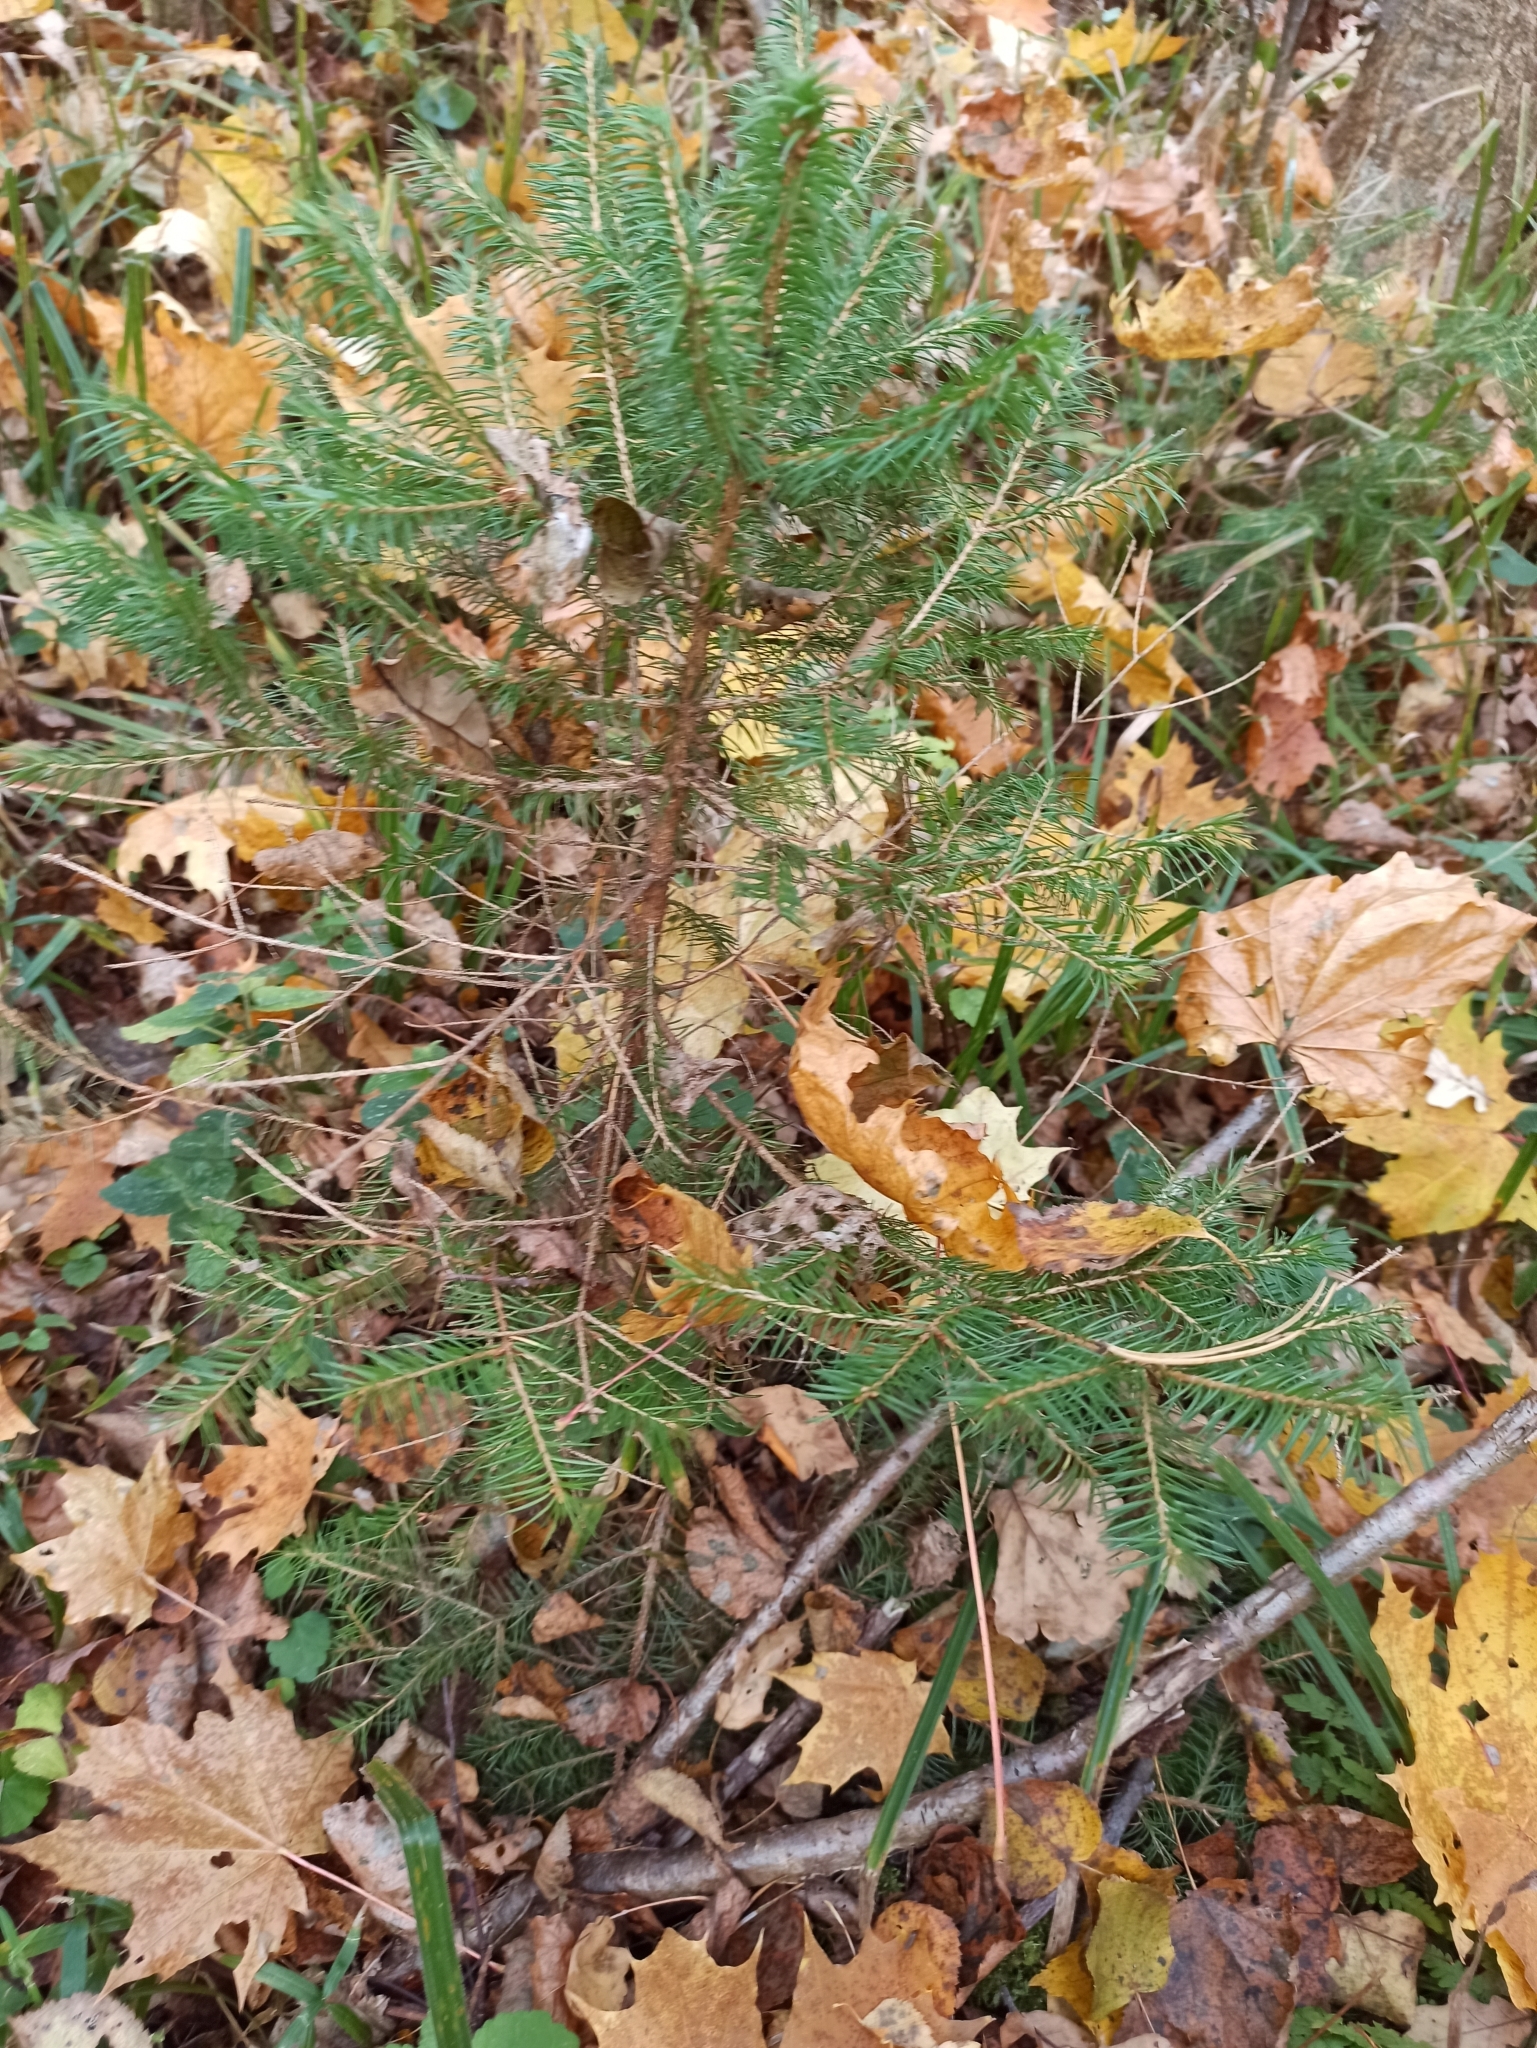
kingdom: Plantae
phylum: Tracheophyta
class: Pinopsida
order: Pinales
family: Pinaceae
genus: Picea
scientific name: Picea abies
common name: Norway spruce
